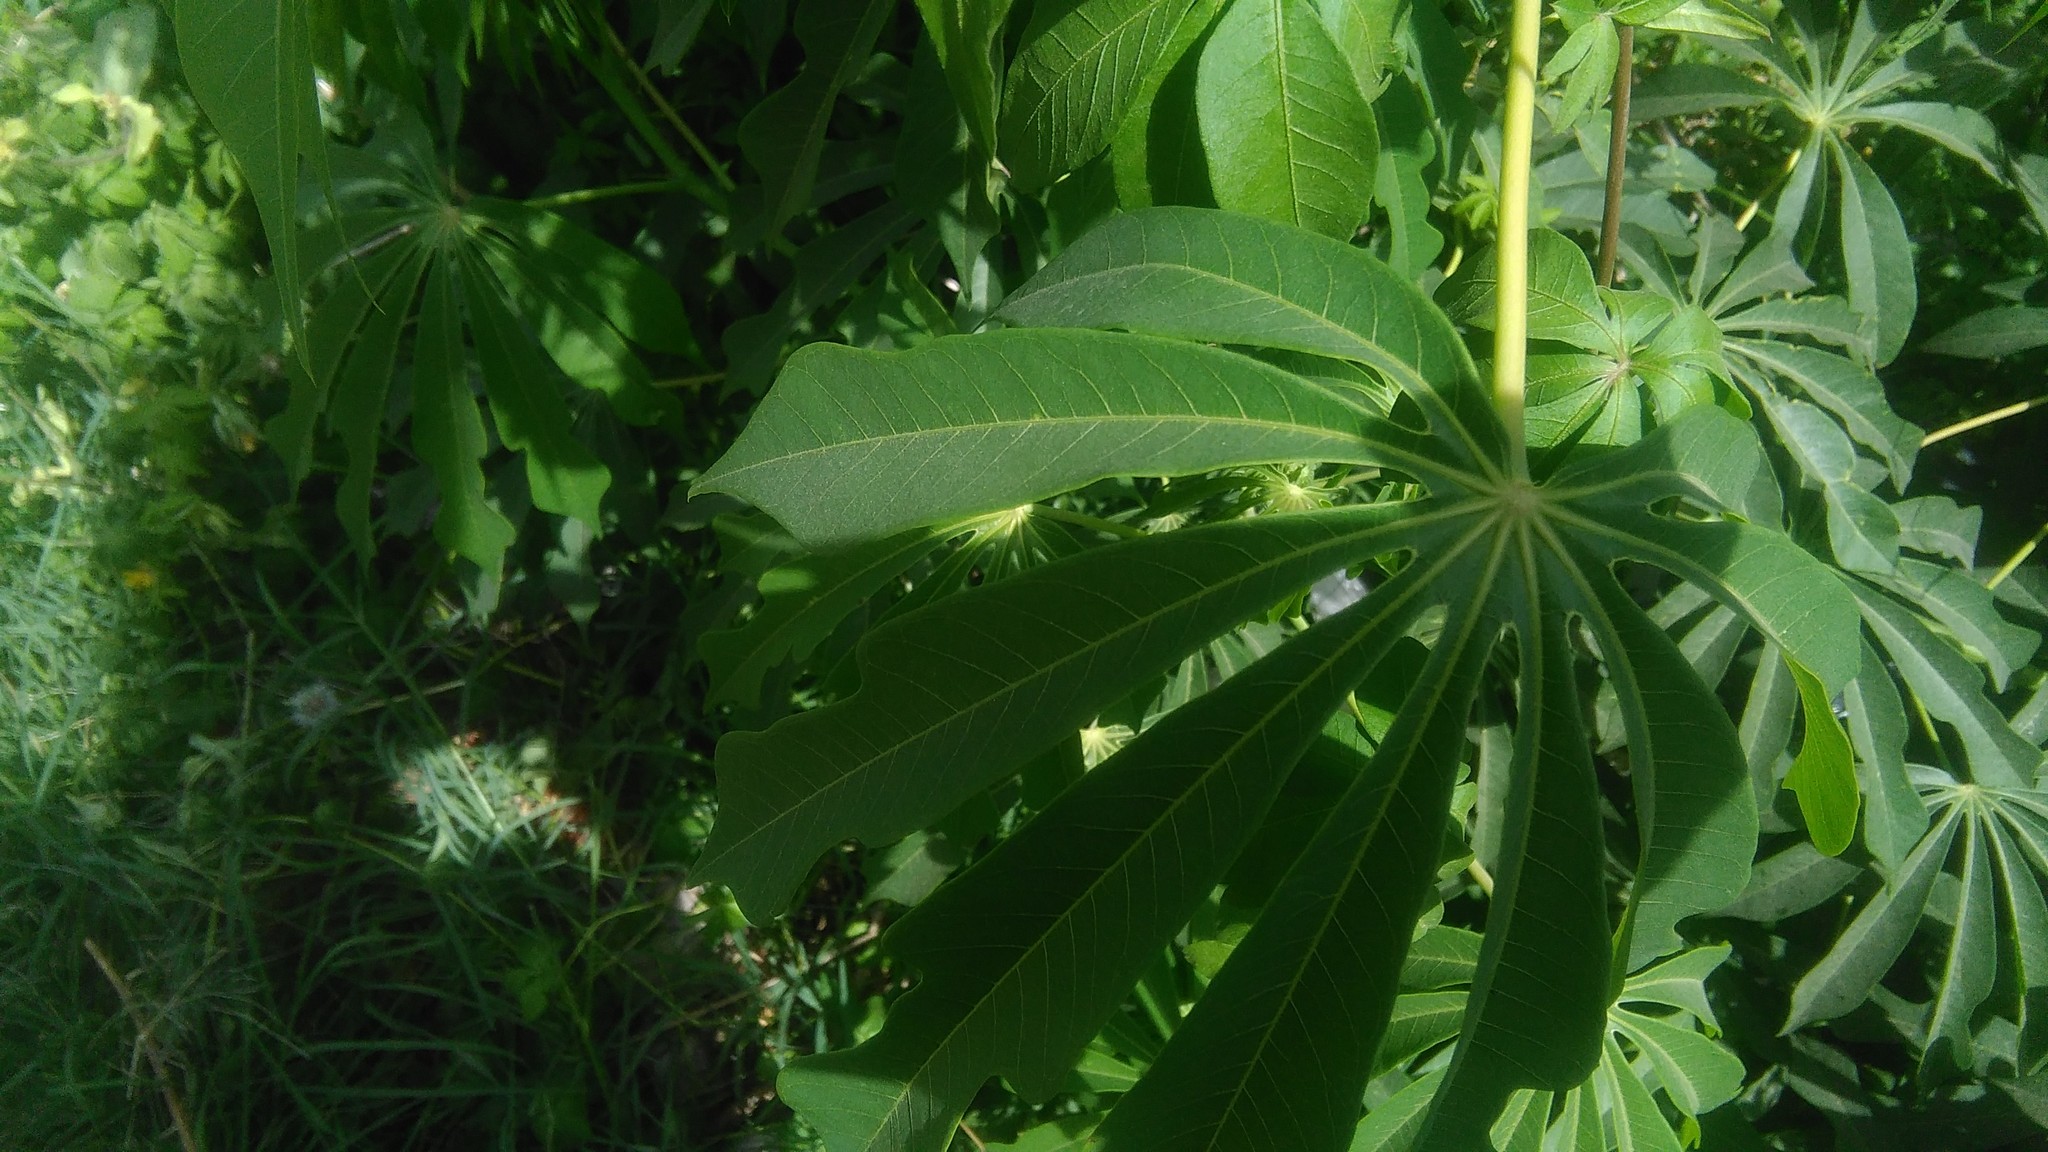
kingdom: Plantae
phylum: Tracheophyta
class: Magnoliopsida
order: Malpighiales
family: Euphorbiaceae
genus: Manihot
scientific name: Manihot grahamii
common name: Graham's manihot
